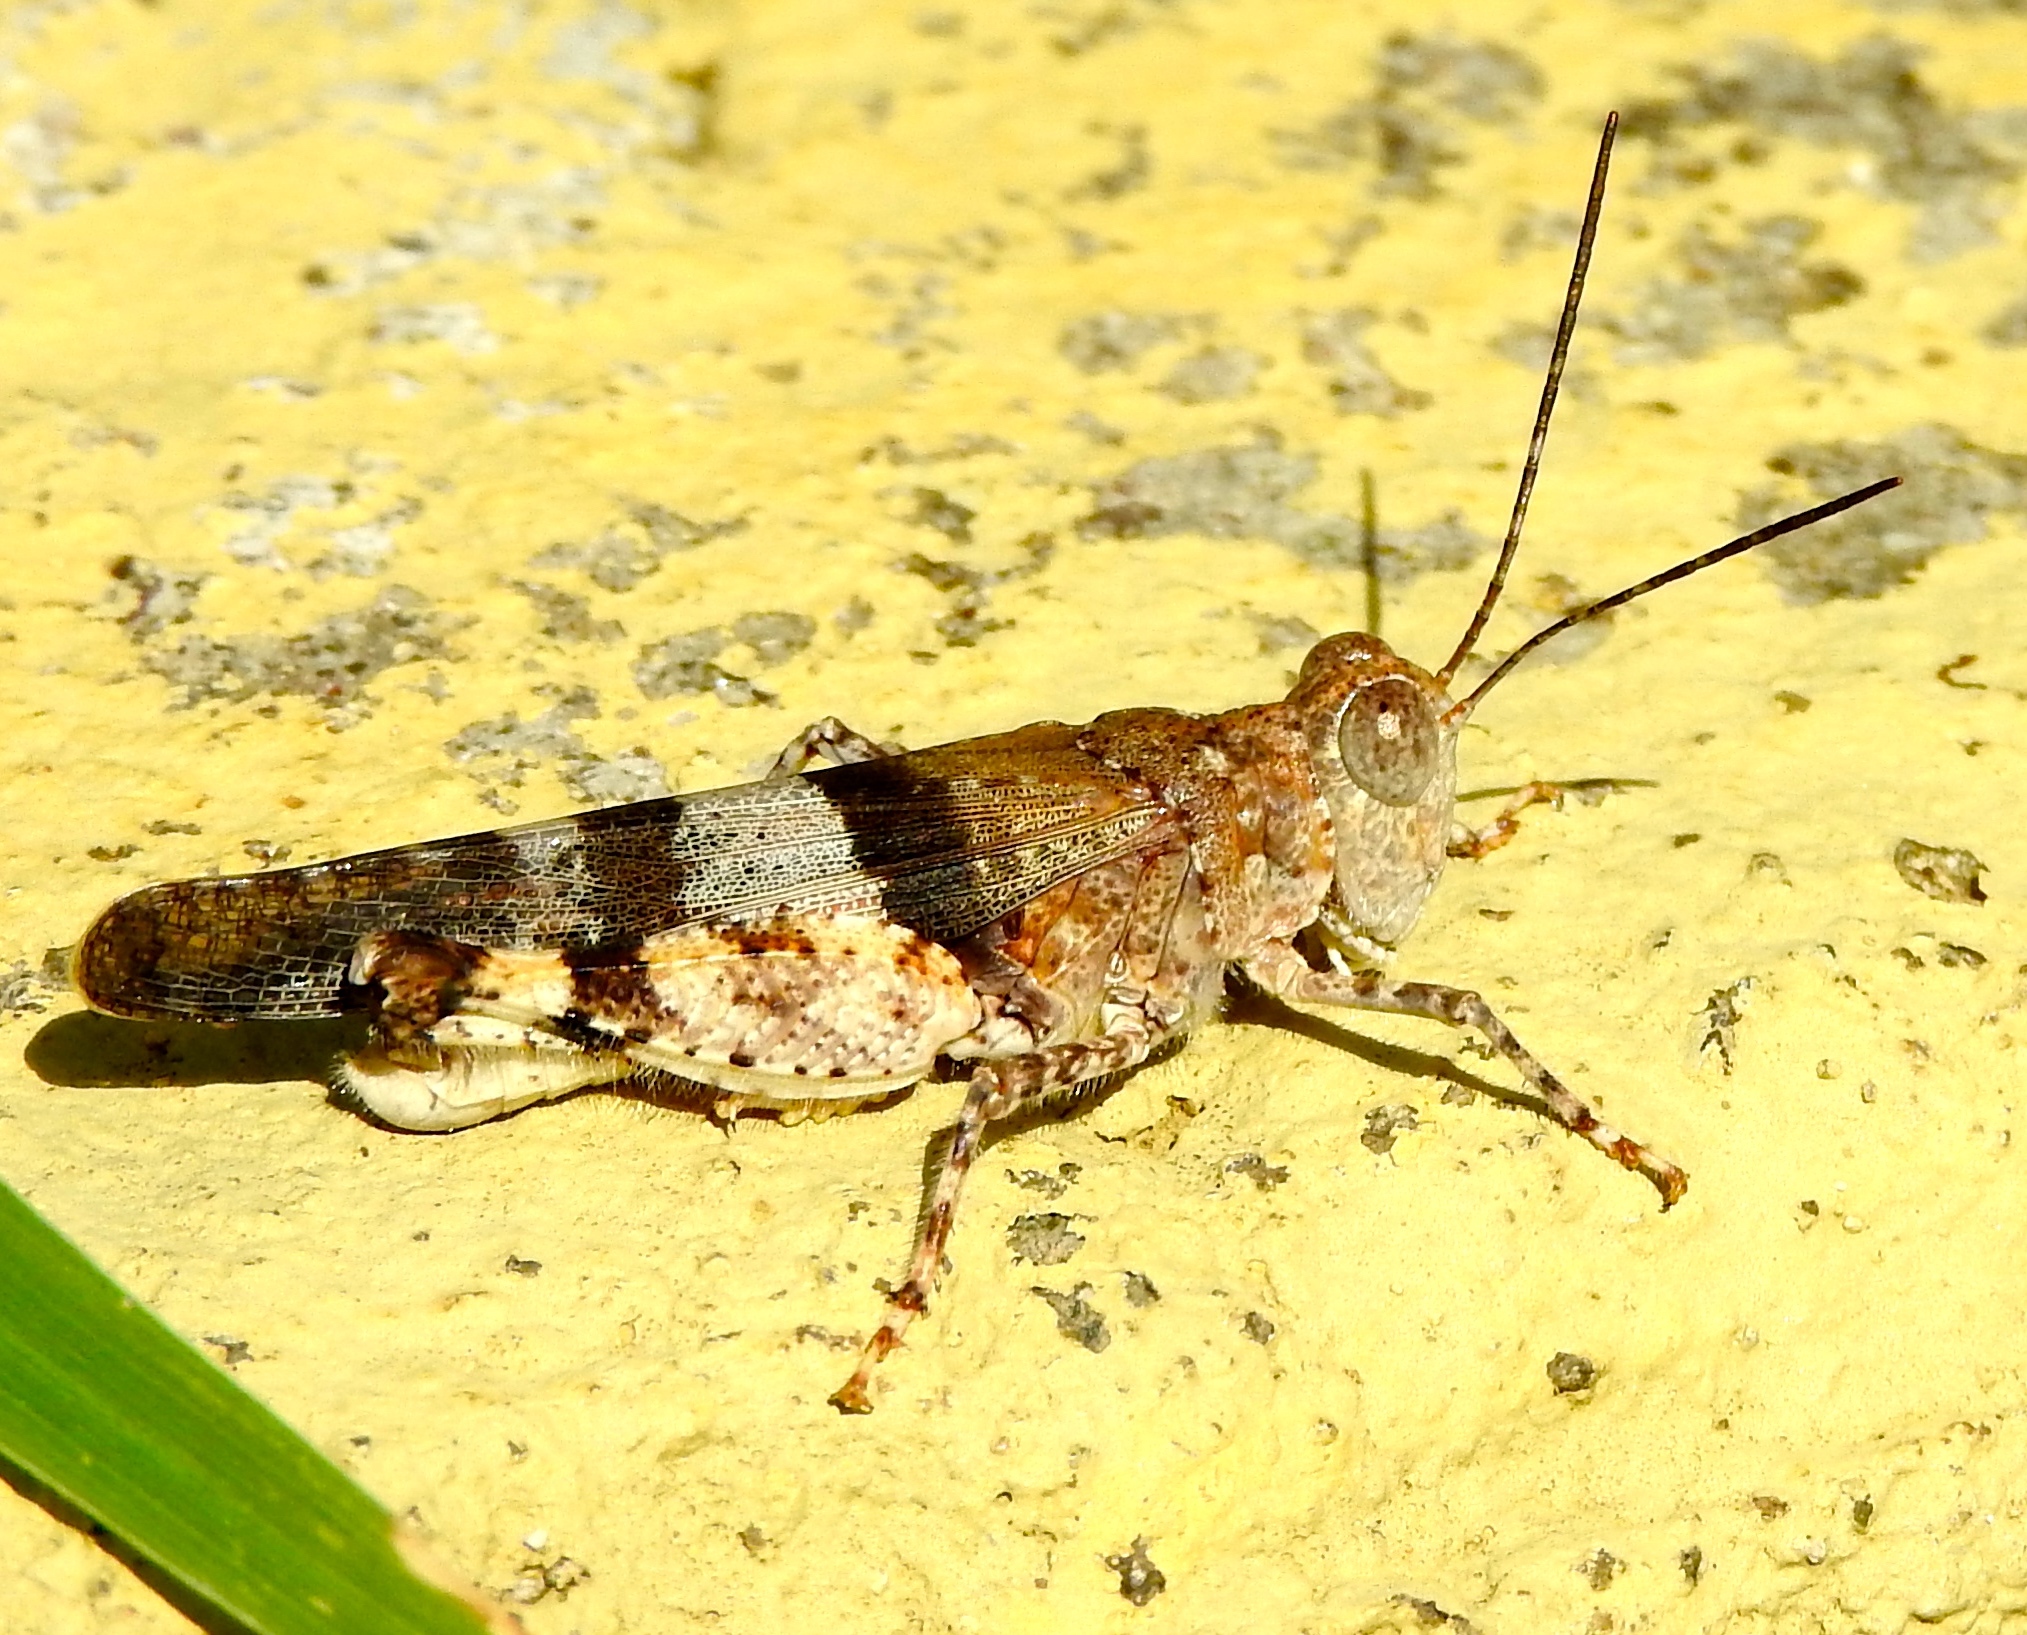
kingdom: Animalia
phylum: Arthropoda
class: Insecta
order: Orthoptera
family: Acrididae
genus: Heliastus
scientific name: Heliastus benjamini
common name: Arroyo grasshopper
